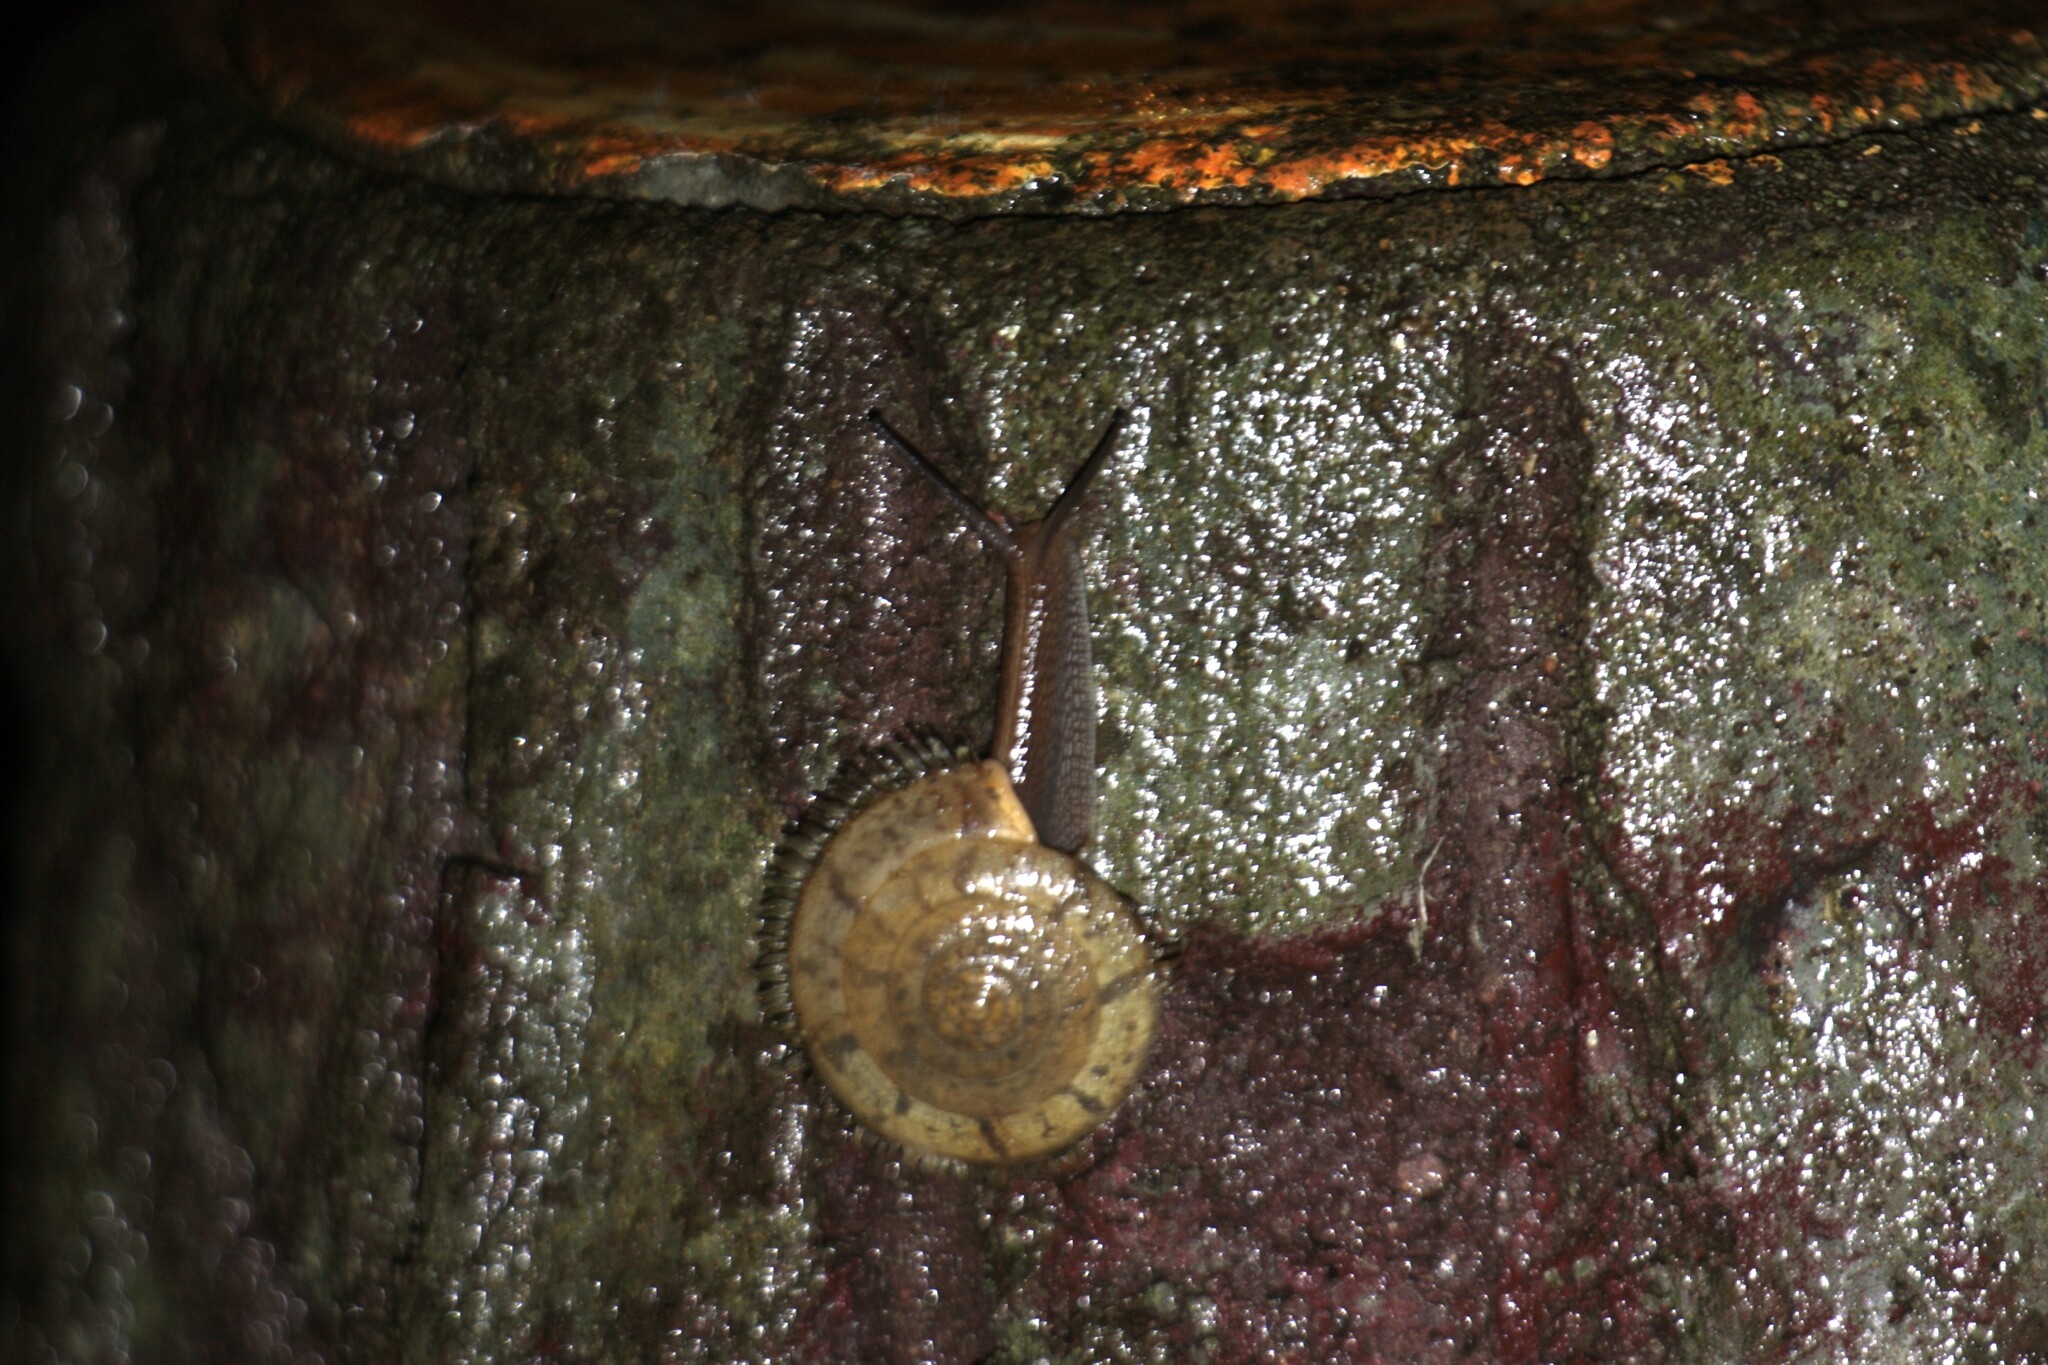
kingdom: Animalia
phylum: Mollusca
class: Gastropoda
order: Stylommatophora
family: Camaenidae
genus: Plectotropis
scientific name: Plectotropis mackensii
